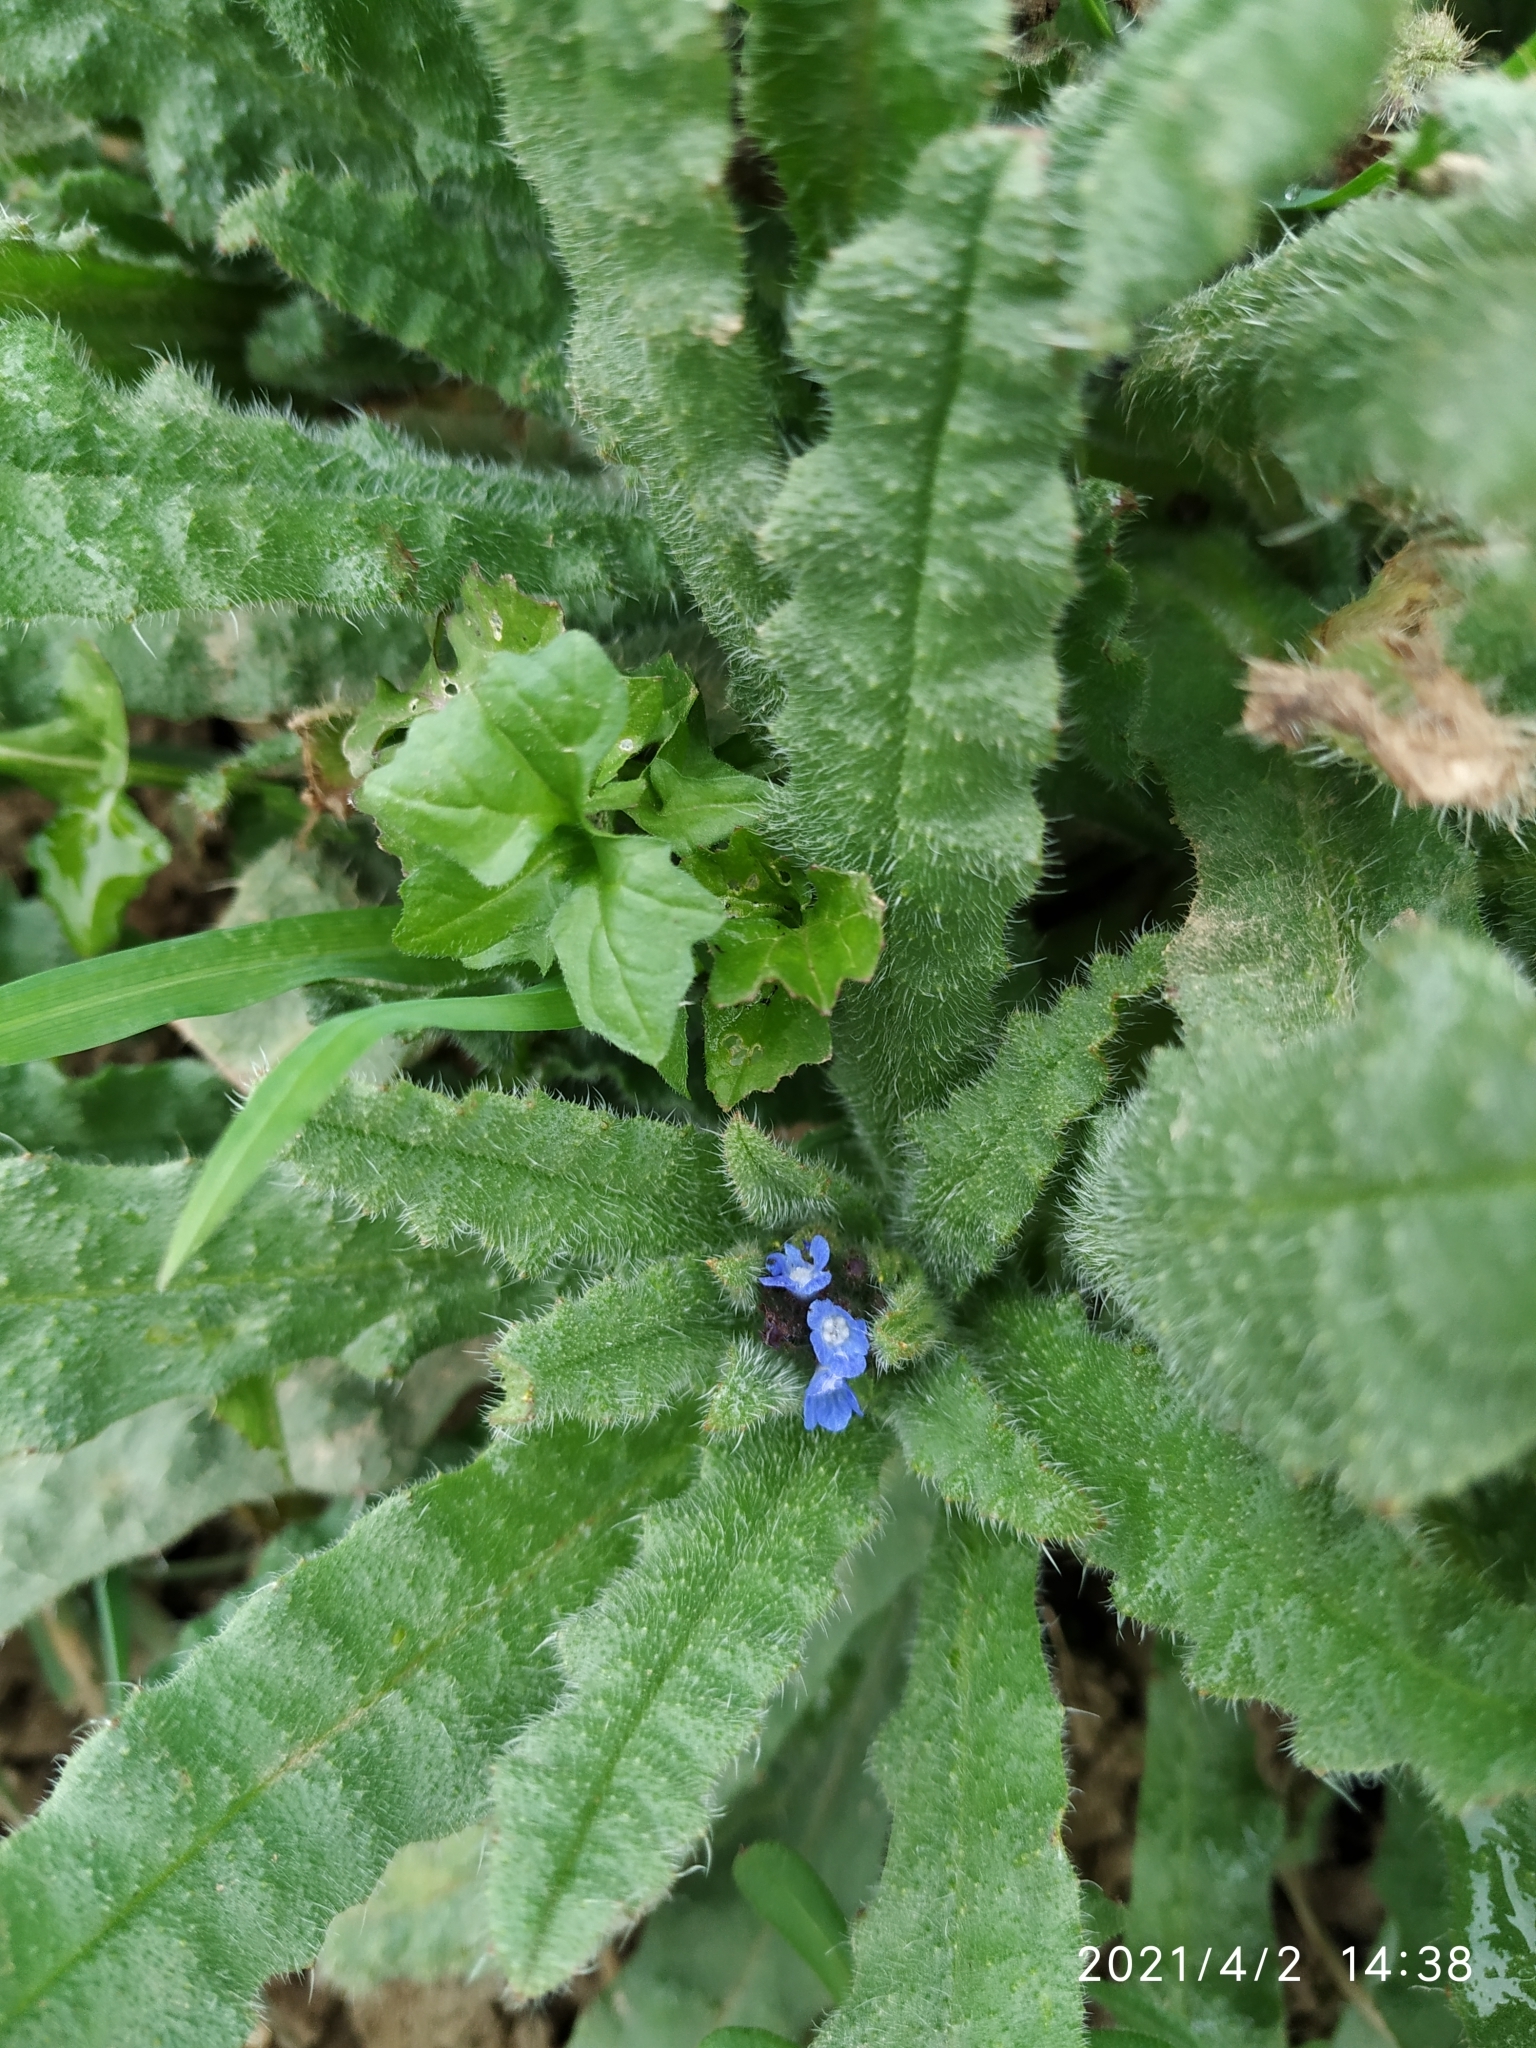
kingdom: Plantae
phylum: Tracheophyta
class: Magnoliopsida
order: Boraginales
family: Boraginaceae
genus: Lycopsis
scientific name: Lycopsis arvensis
